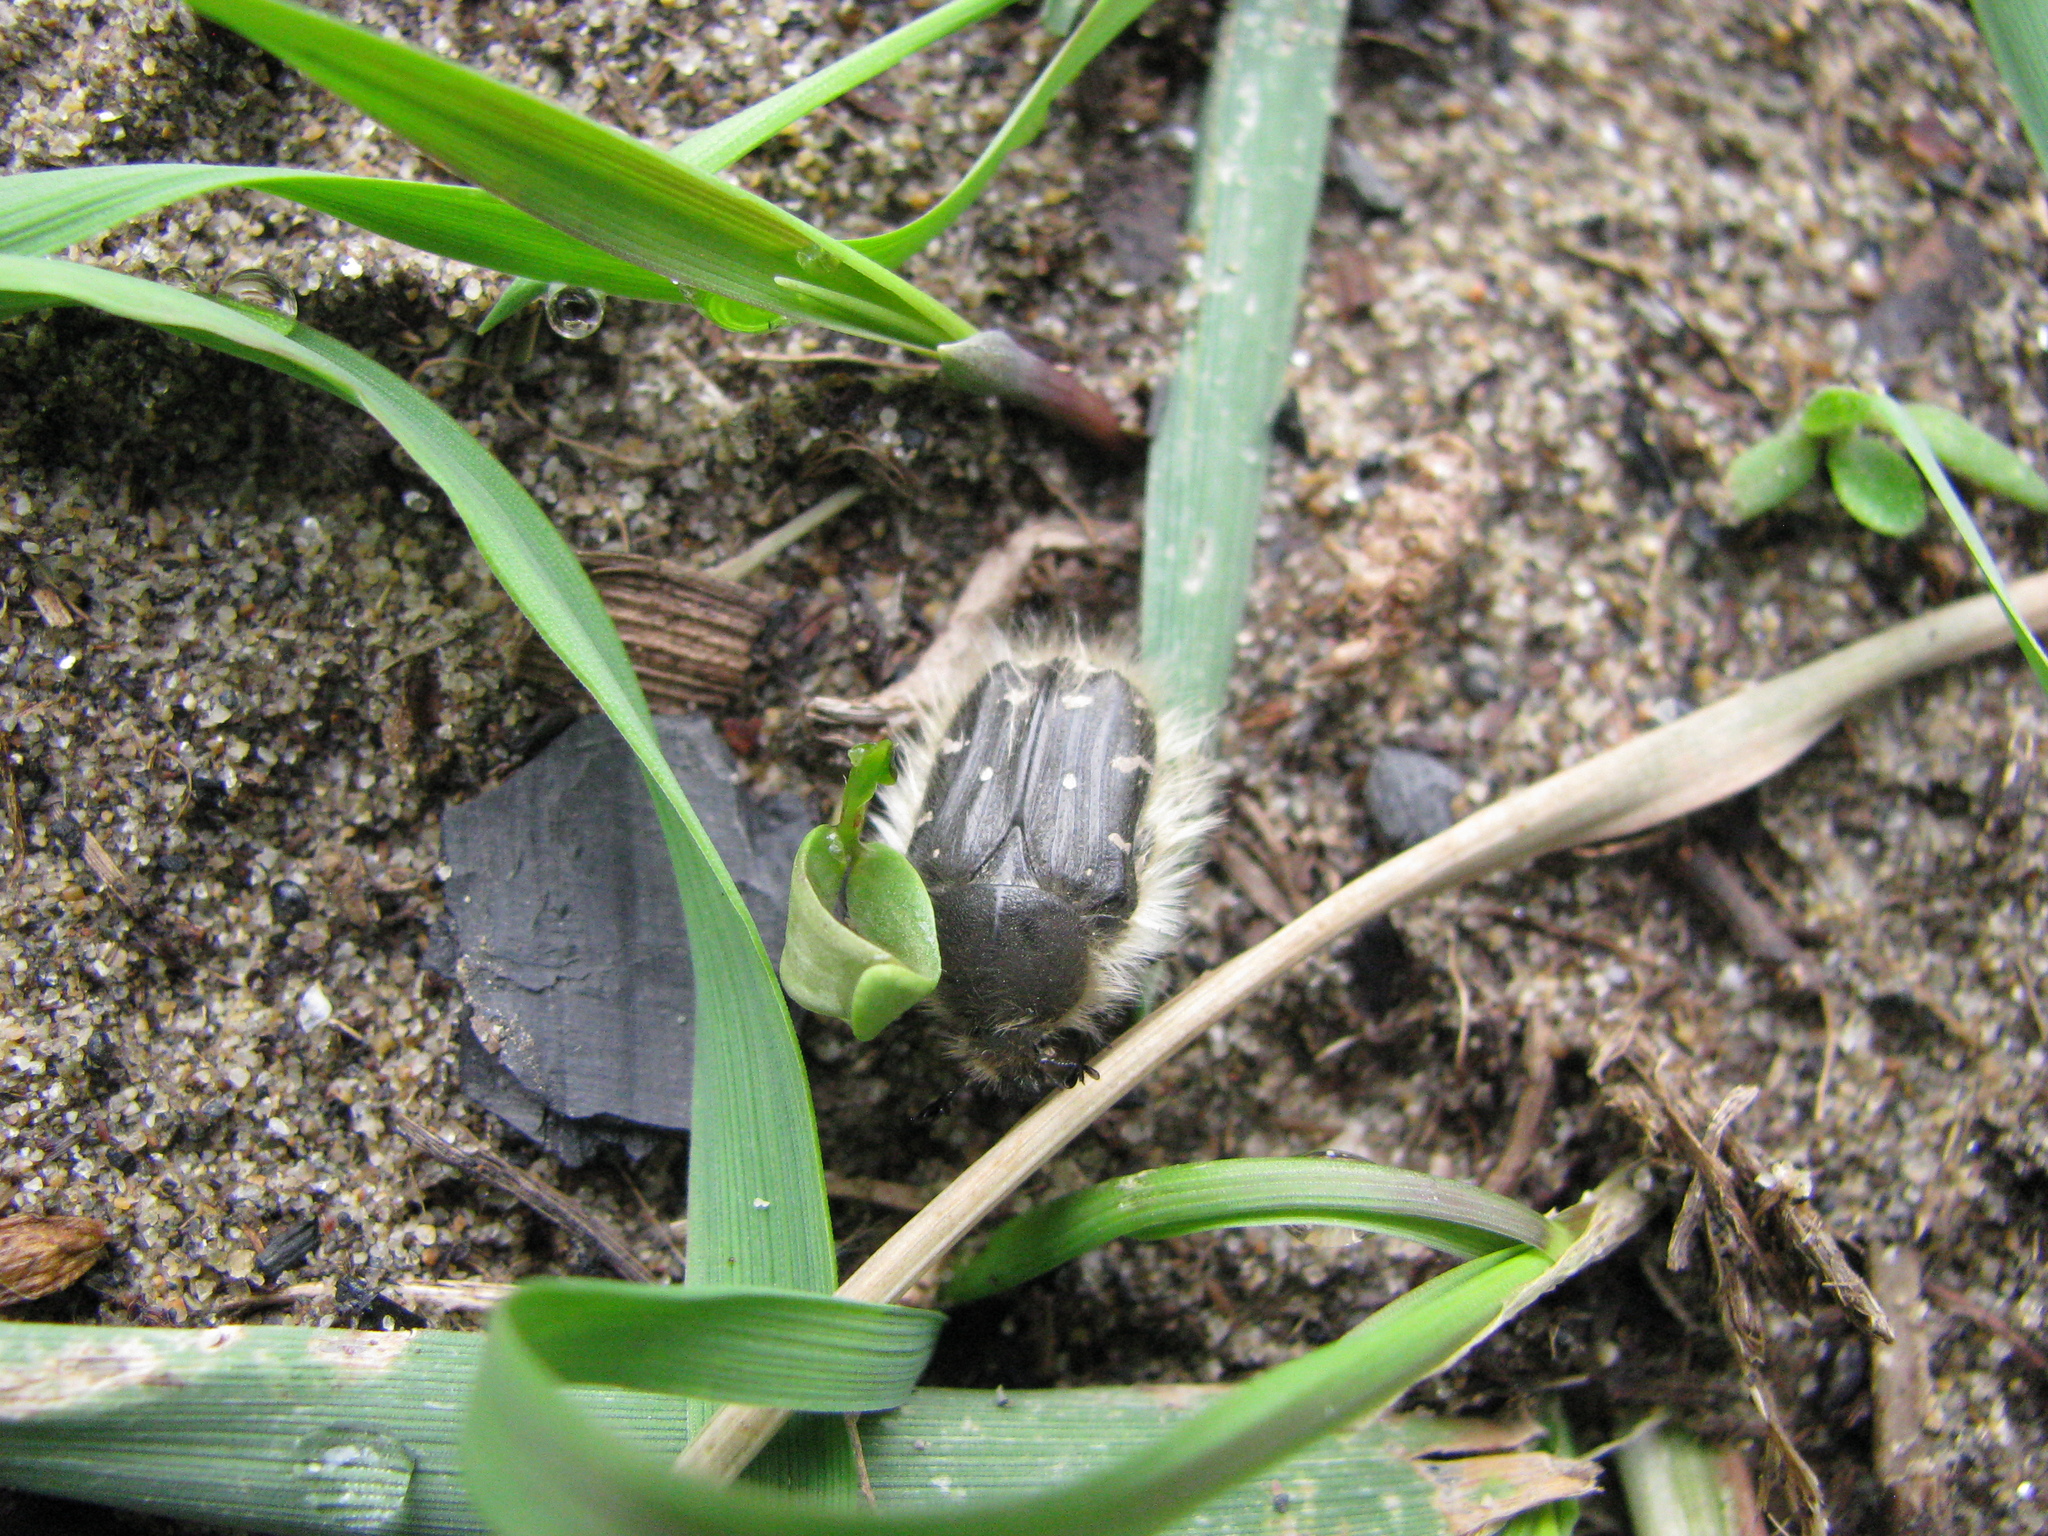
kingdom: Animalia
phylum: Arthropoda
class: Insecta
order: Coleoptera
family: Scarabaeidae
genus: Tropinota
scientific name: Tropinota hirta
